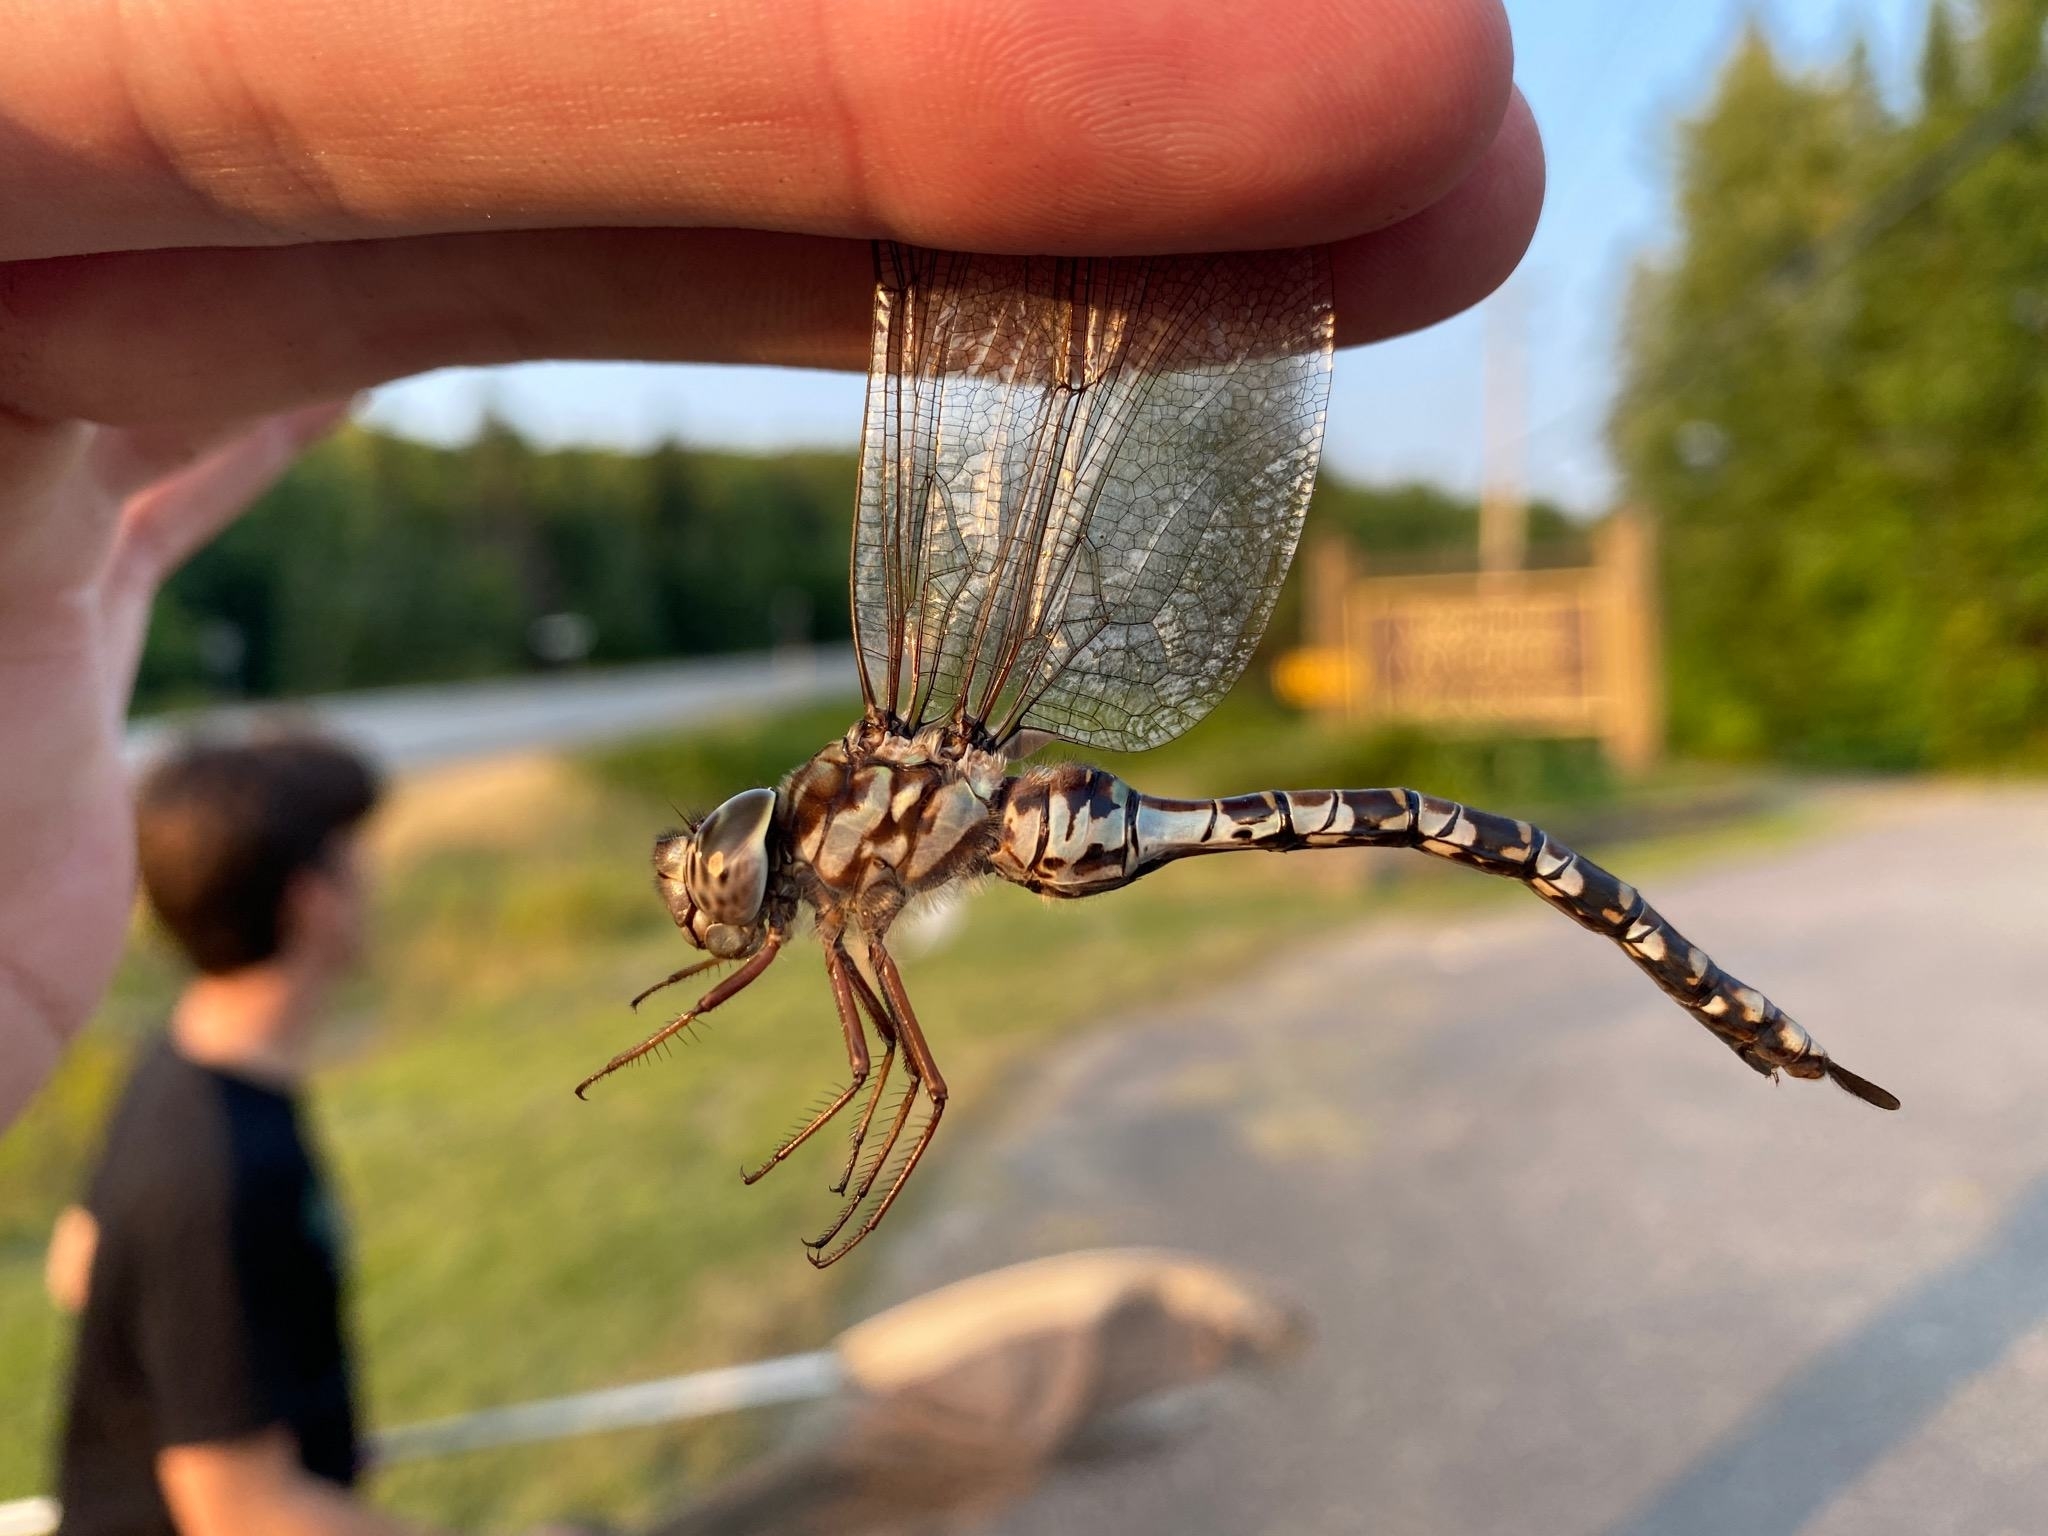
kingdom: Animalia
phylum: Arthropoda
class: Insecta
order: Odonata
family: Aeshnidae
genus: Aeshna
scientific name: Aeshna clepsydra
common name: Mottled darner
